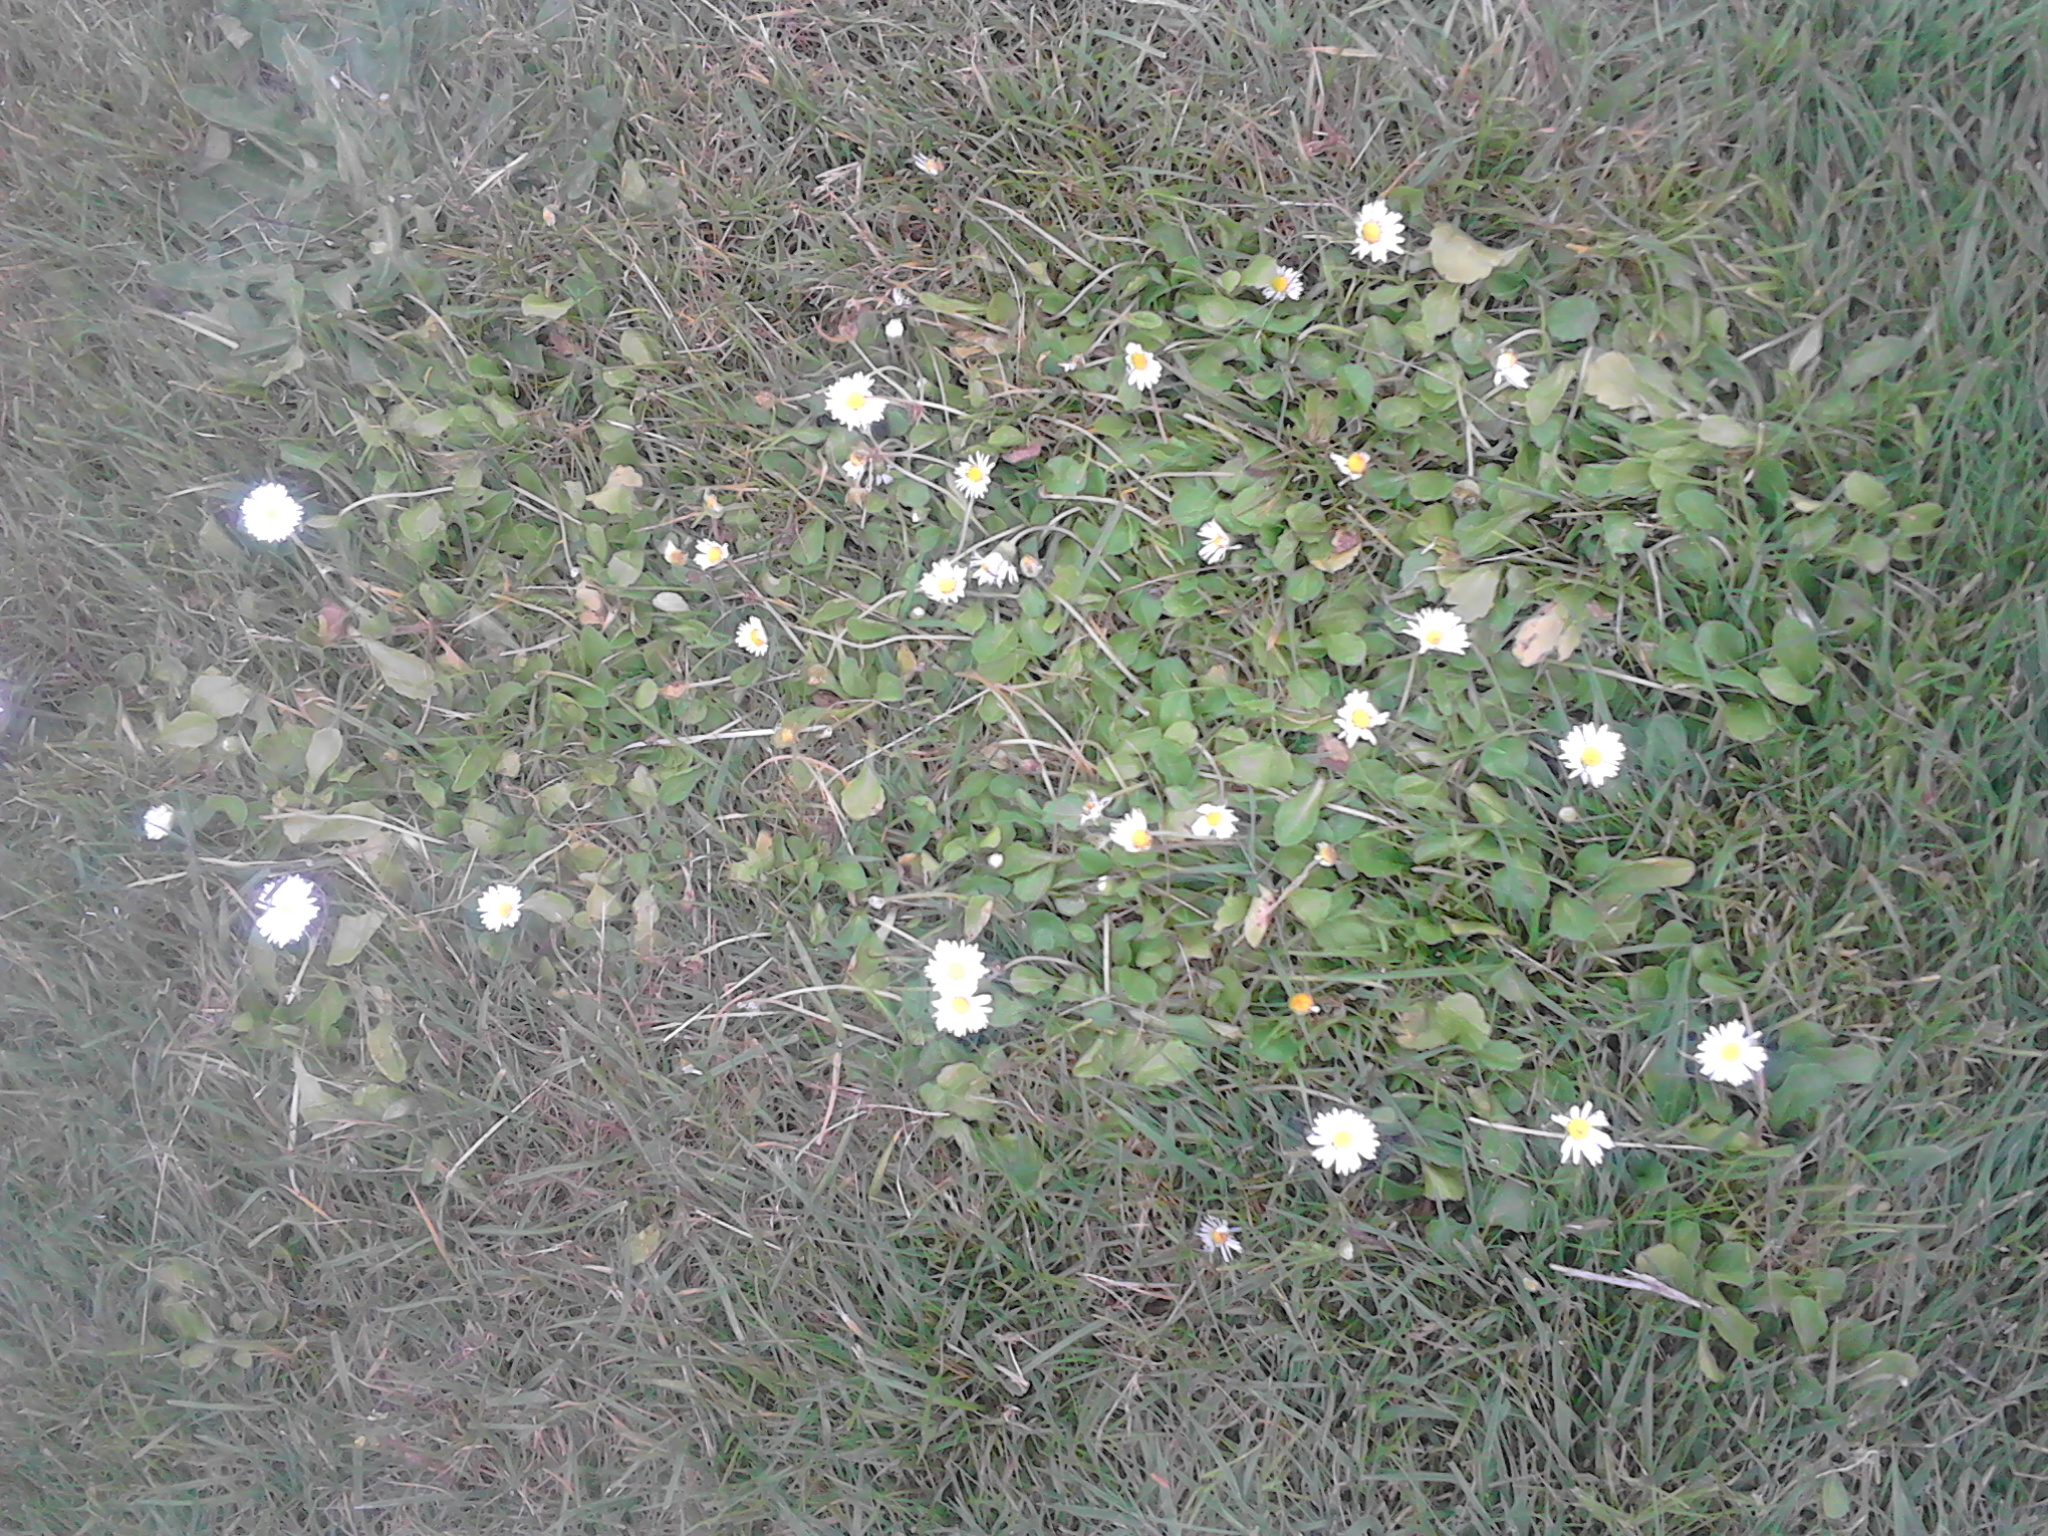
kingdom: Plantae
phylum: Tracheophyta
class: Magnoliopsida
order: Asterales
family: Asteraceae
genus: Bellis
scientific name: Bellis perennis
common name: Lawndaisy
